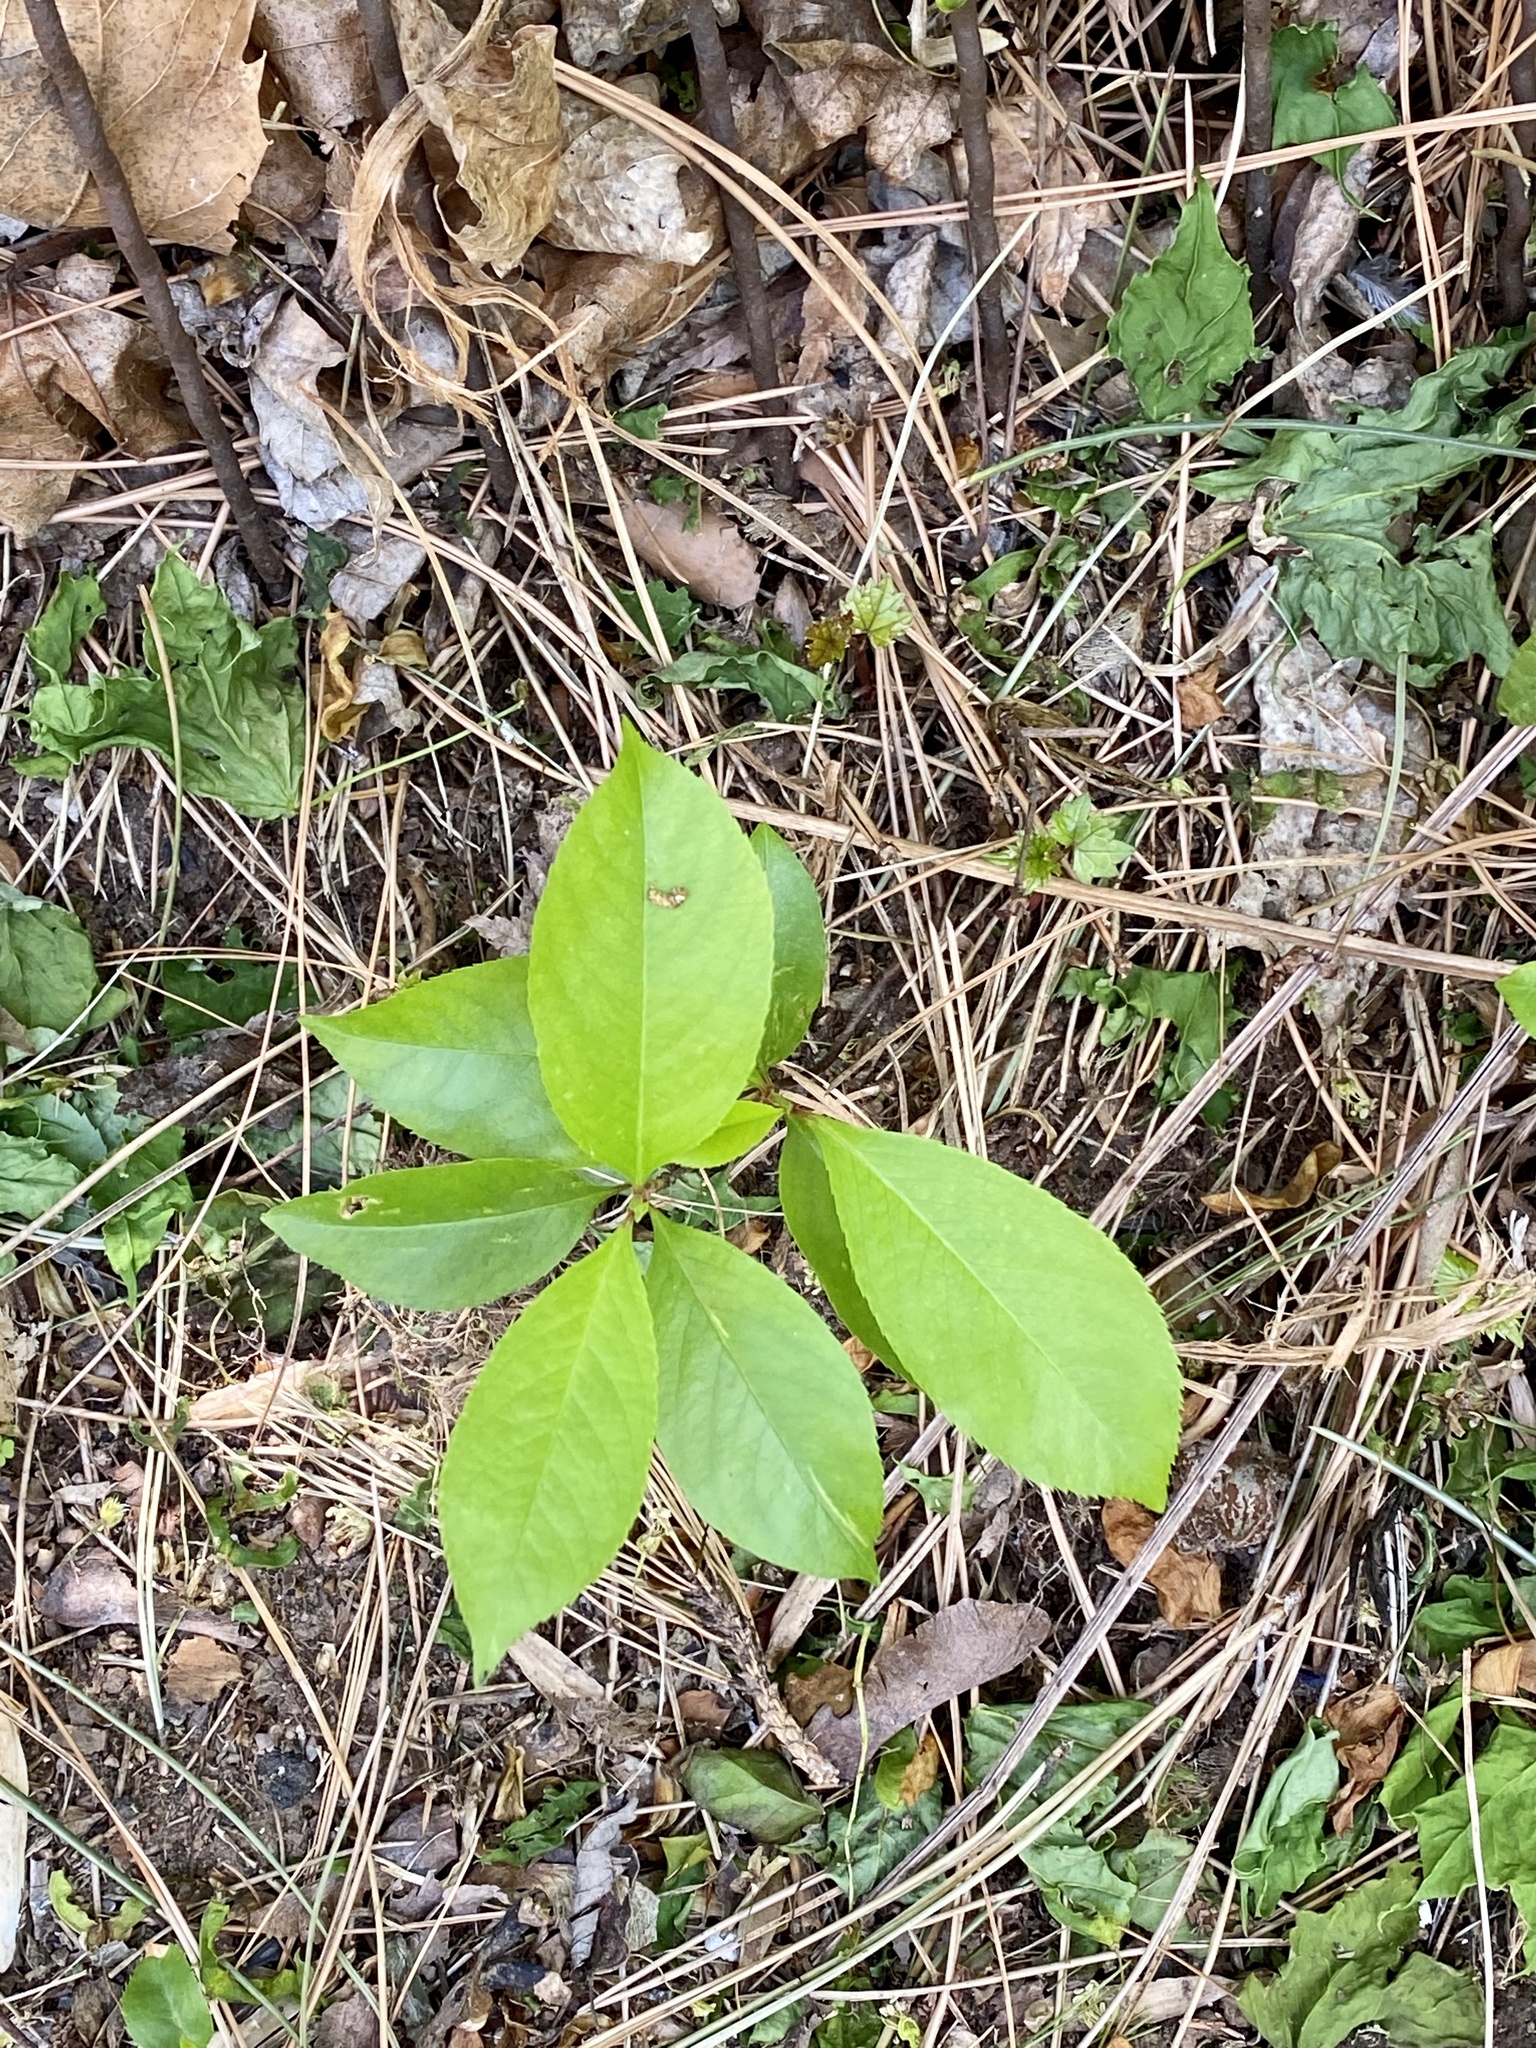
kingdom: Plantae
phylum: Tracheophyta
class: Magnoliopsida
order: Rosales
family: Rosaceae
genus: Prunus
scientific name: Prunus serotina
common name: Black cherry
